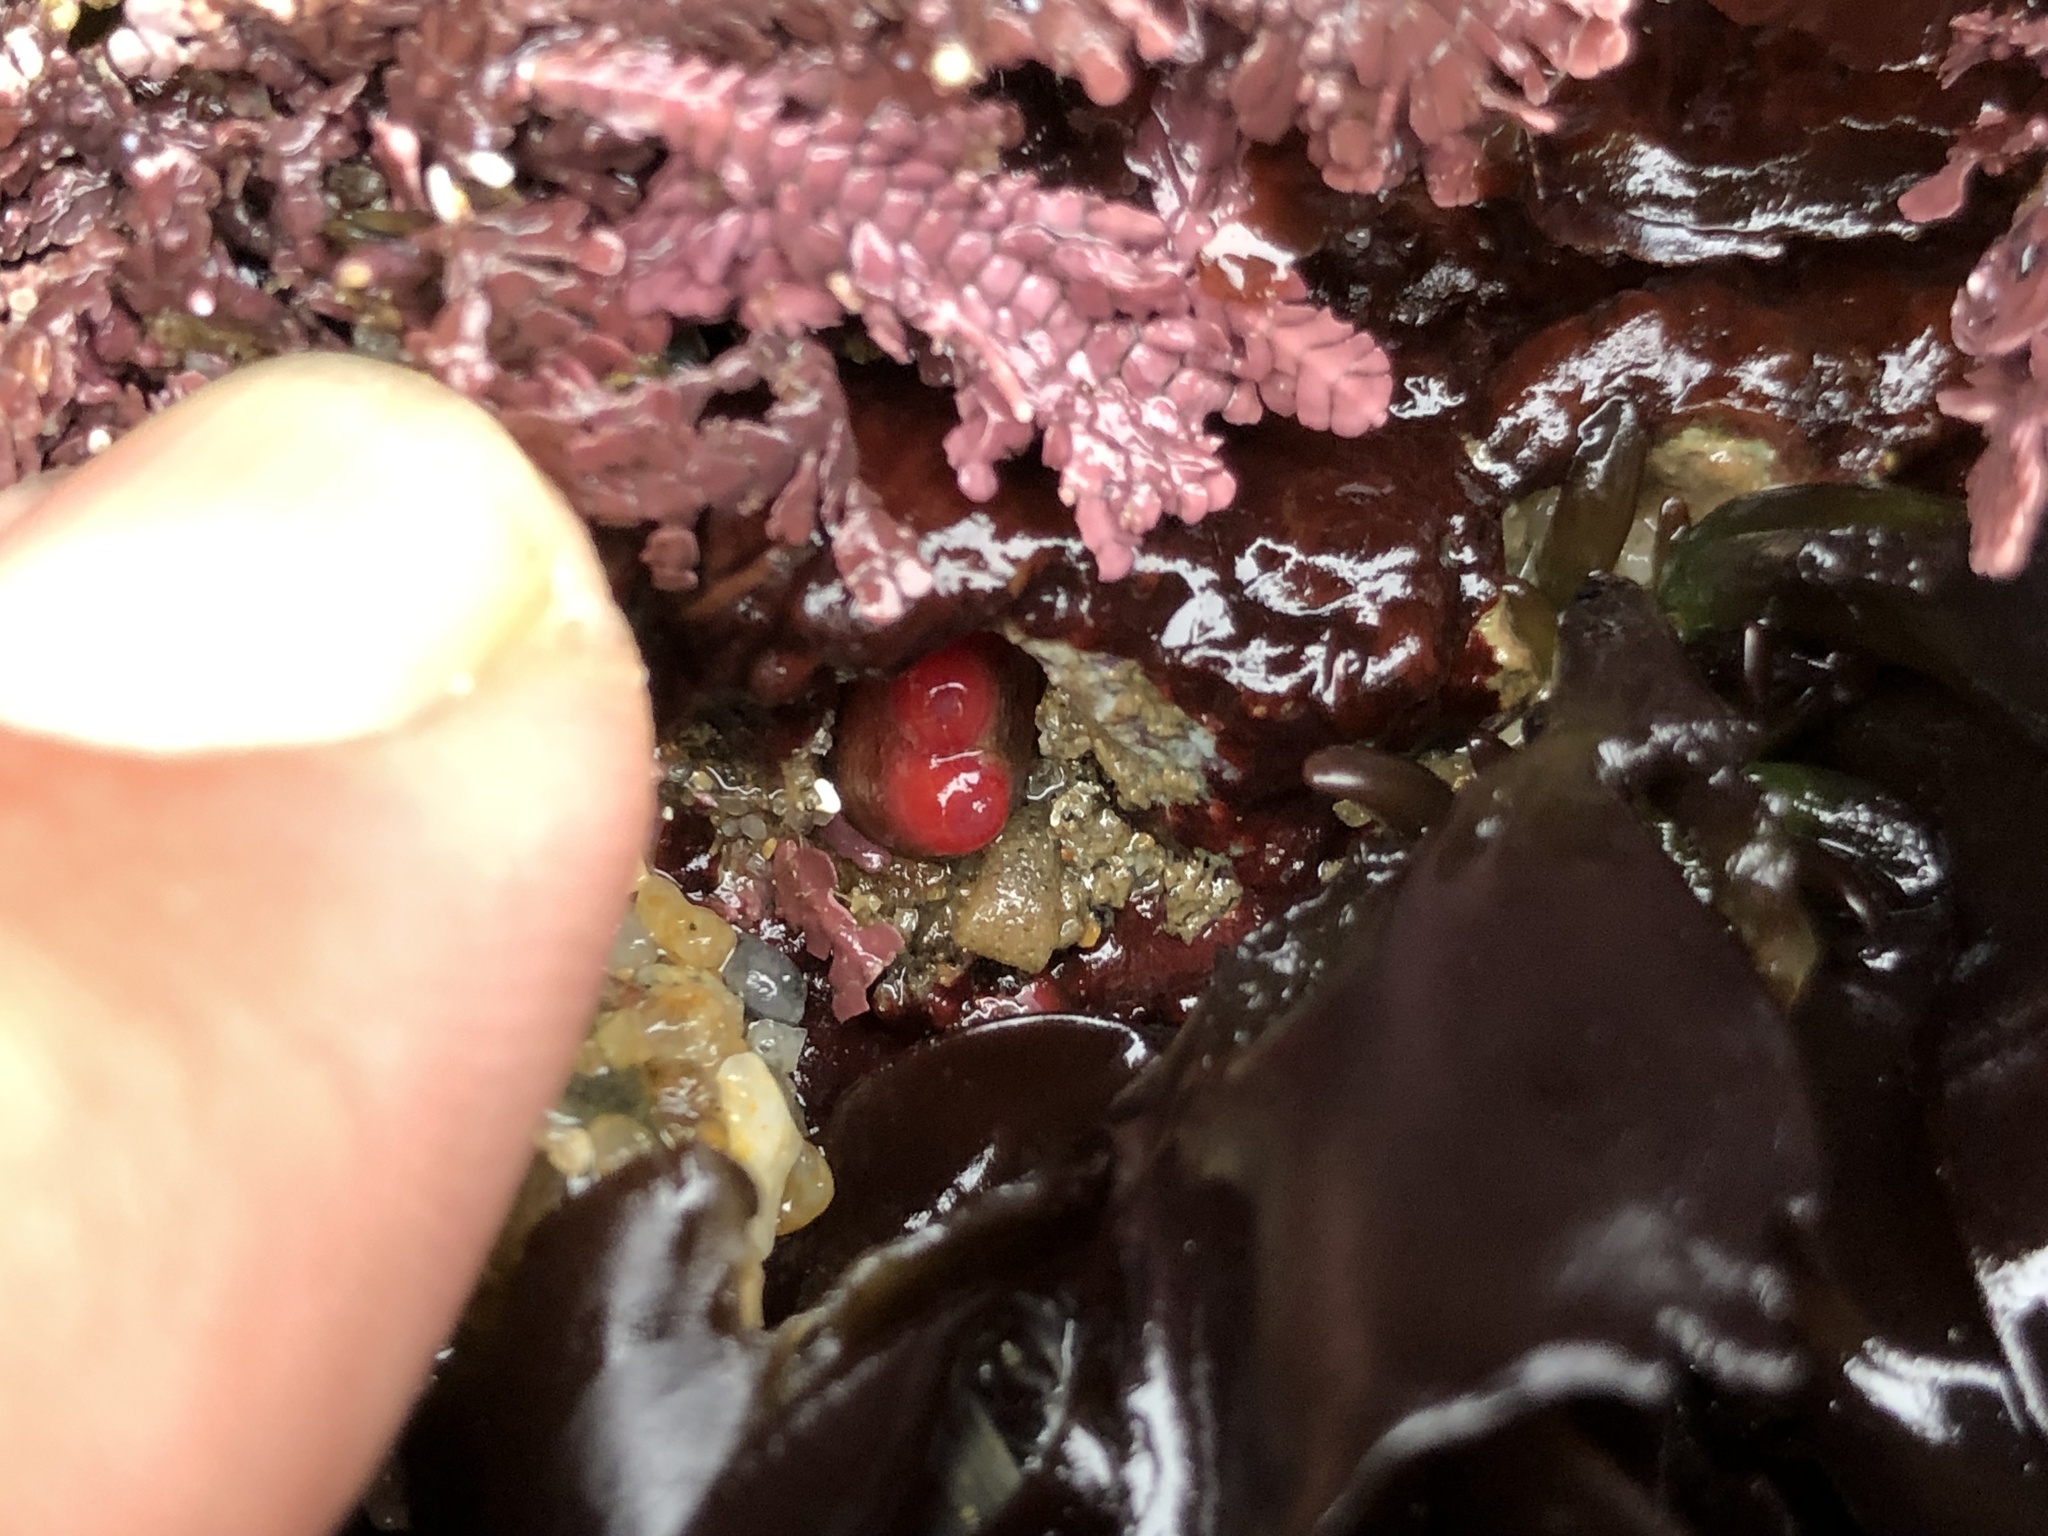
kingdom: Animalia
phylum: Mollusca
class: Bivalvia
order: Adapedonta
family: Hiatellidae
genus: Hiatella
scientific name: Hiatella arctica
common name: Arctic hiatella
